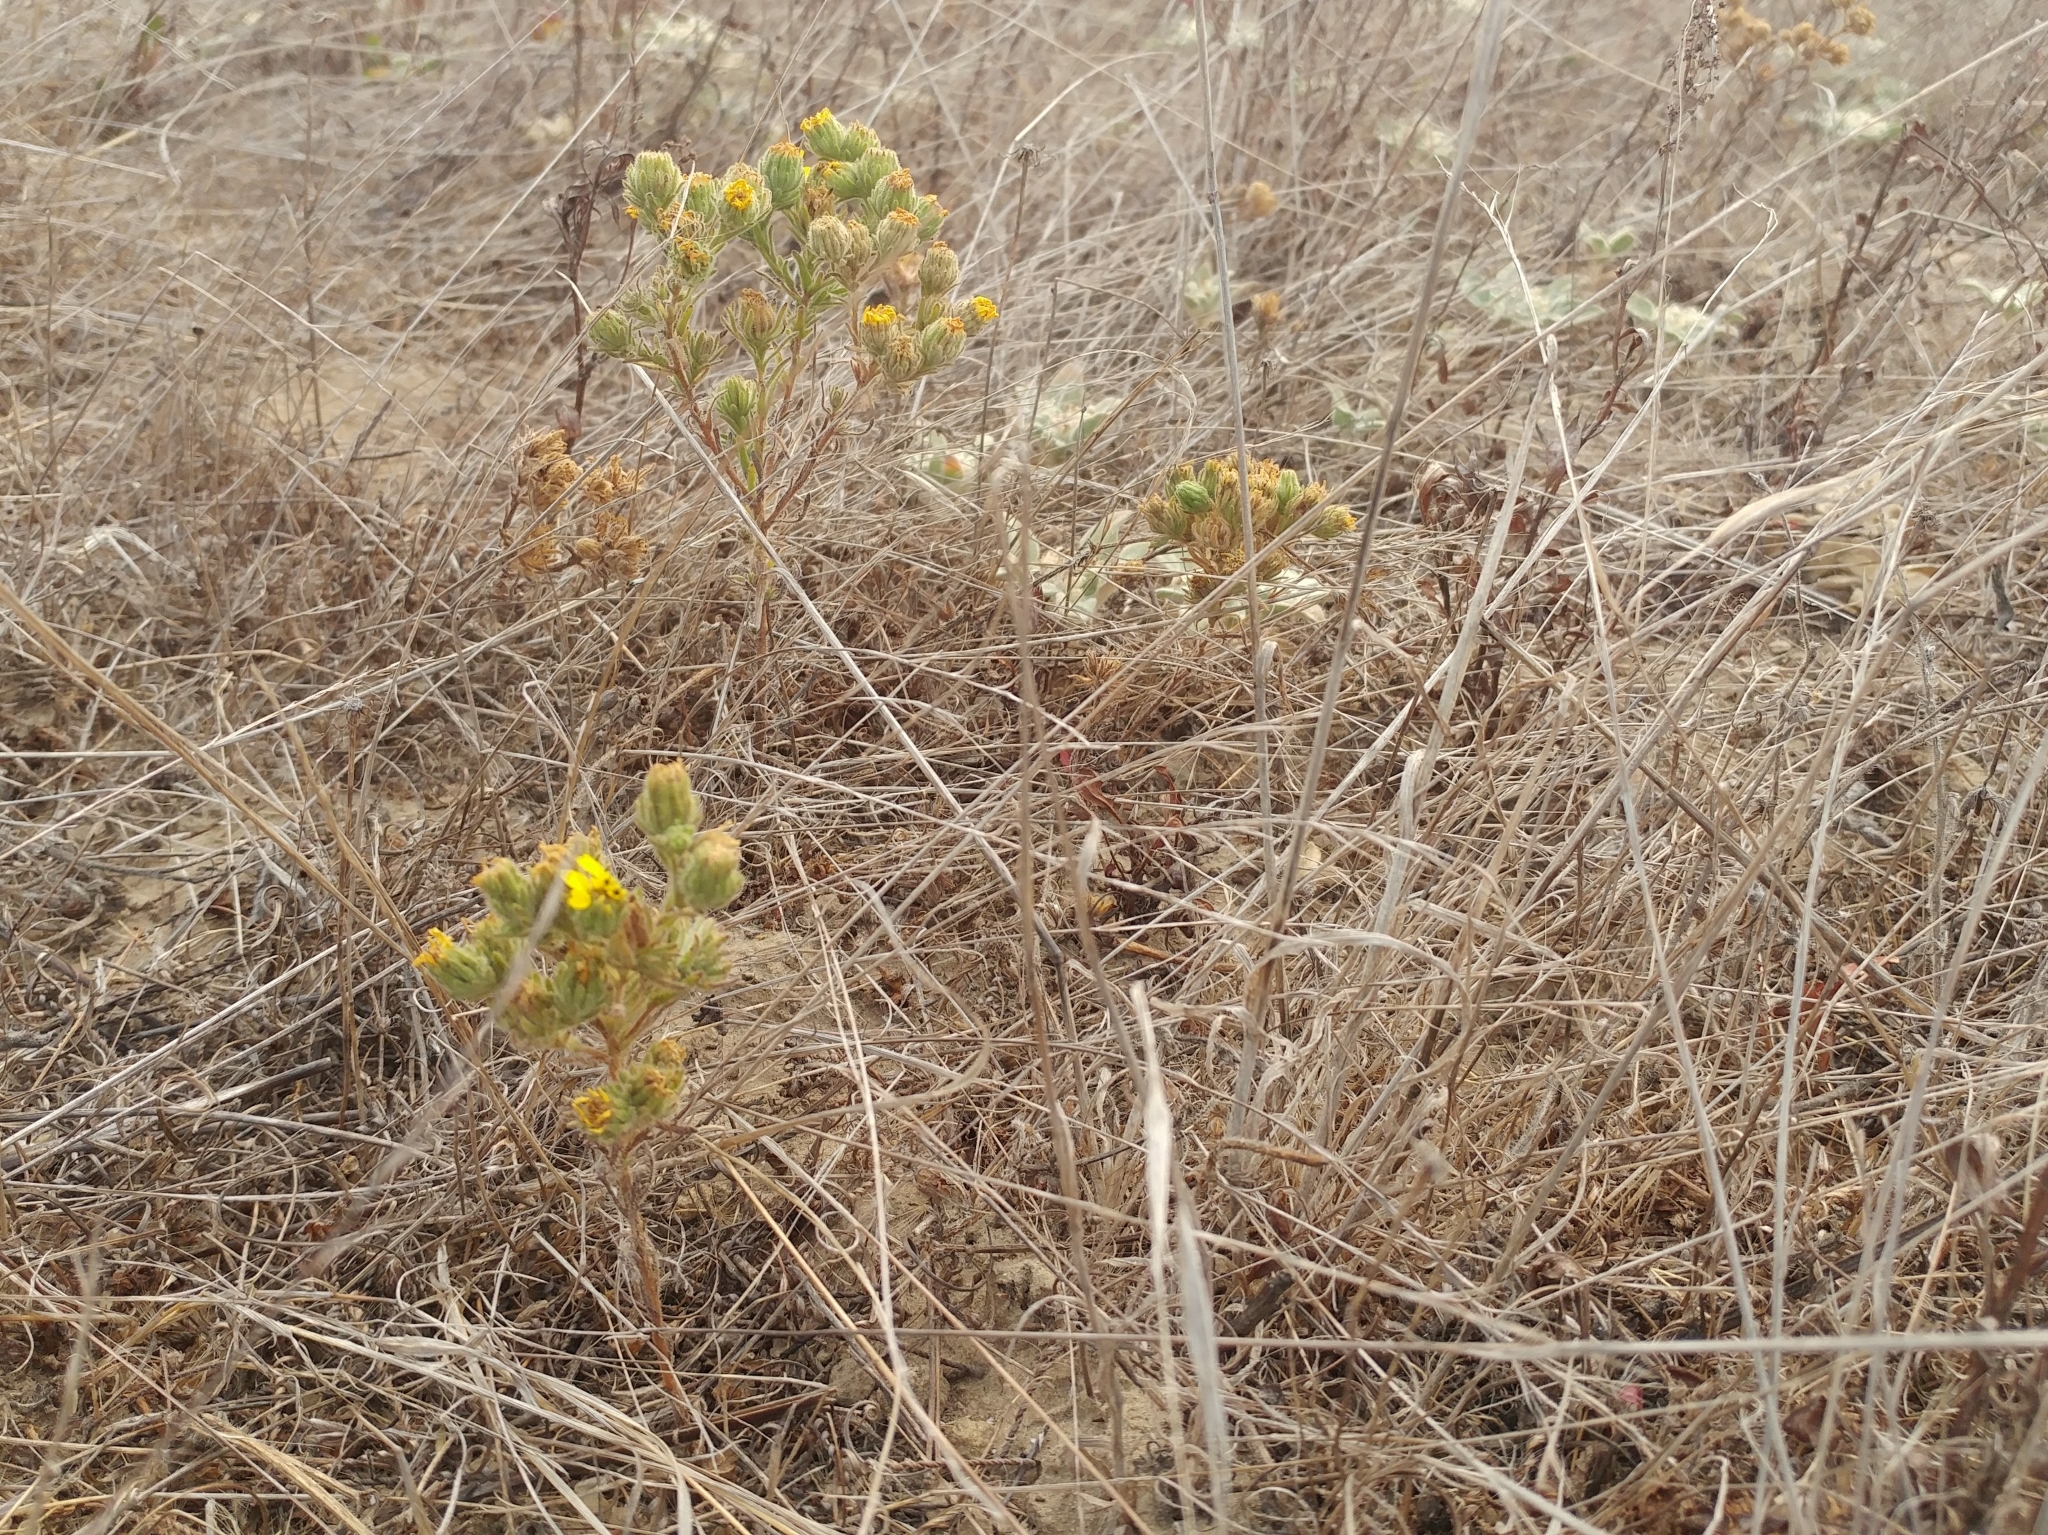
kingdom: Plantae
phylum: Tracheophyta
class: Magnoliopsida
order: Asterales
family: Asteraceae
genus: Deinandra
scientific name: Deinandra increscens
